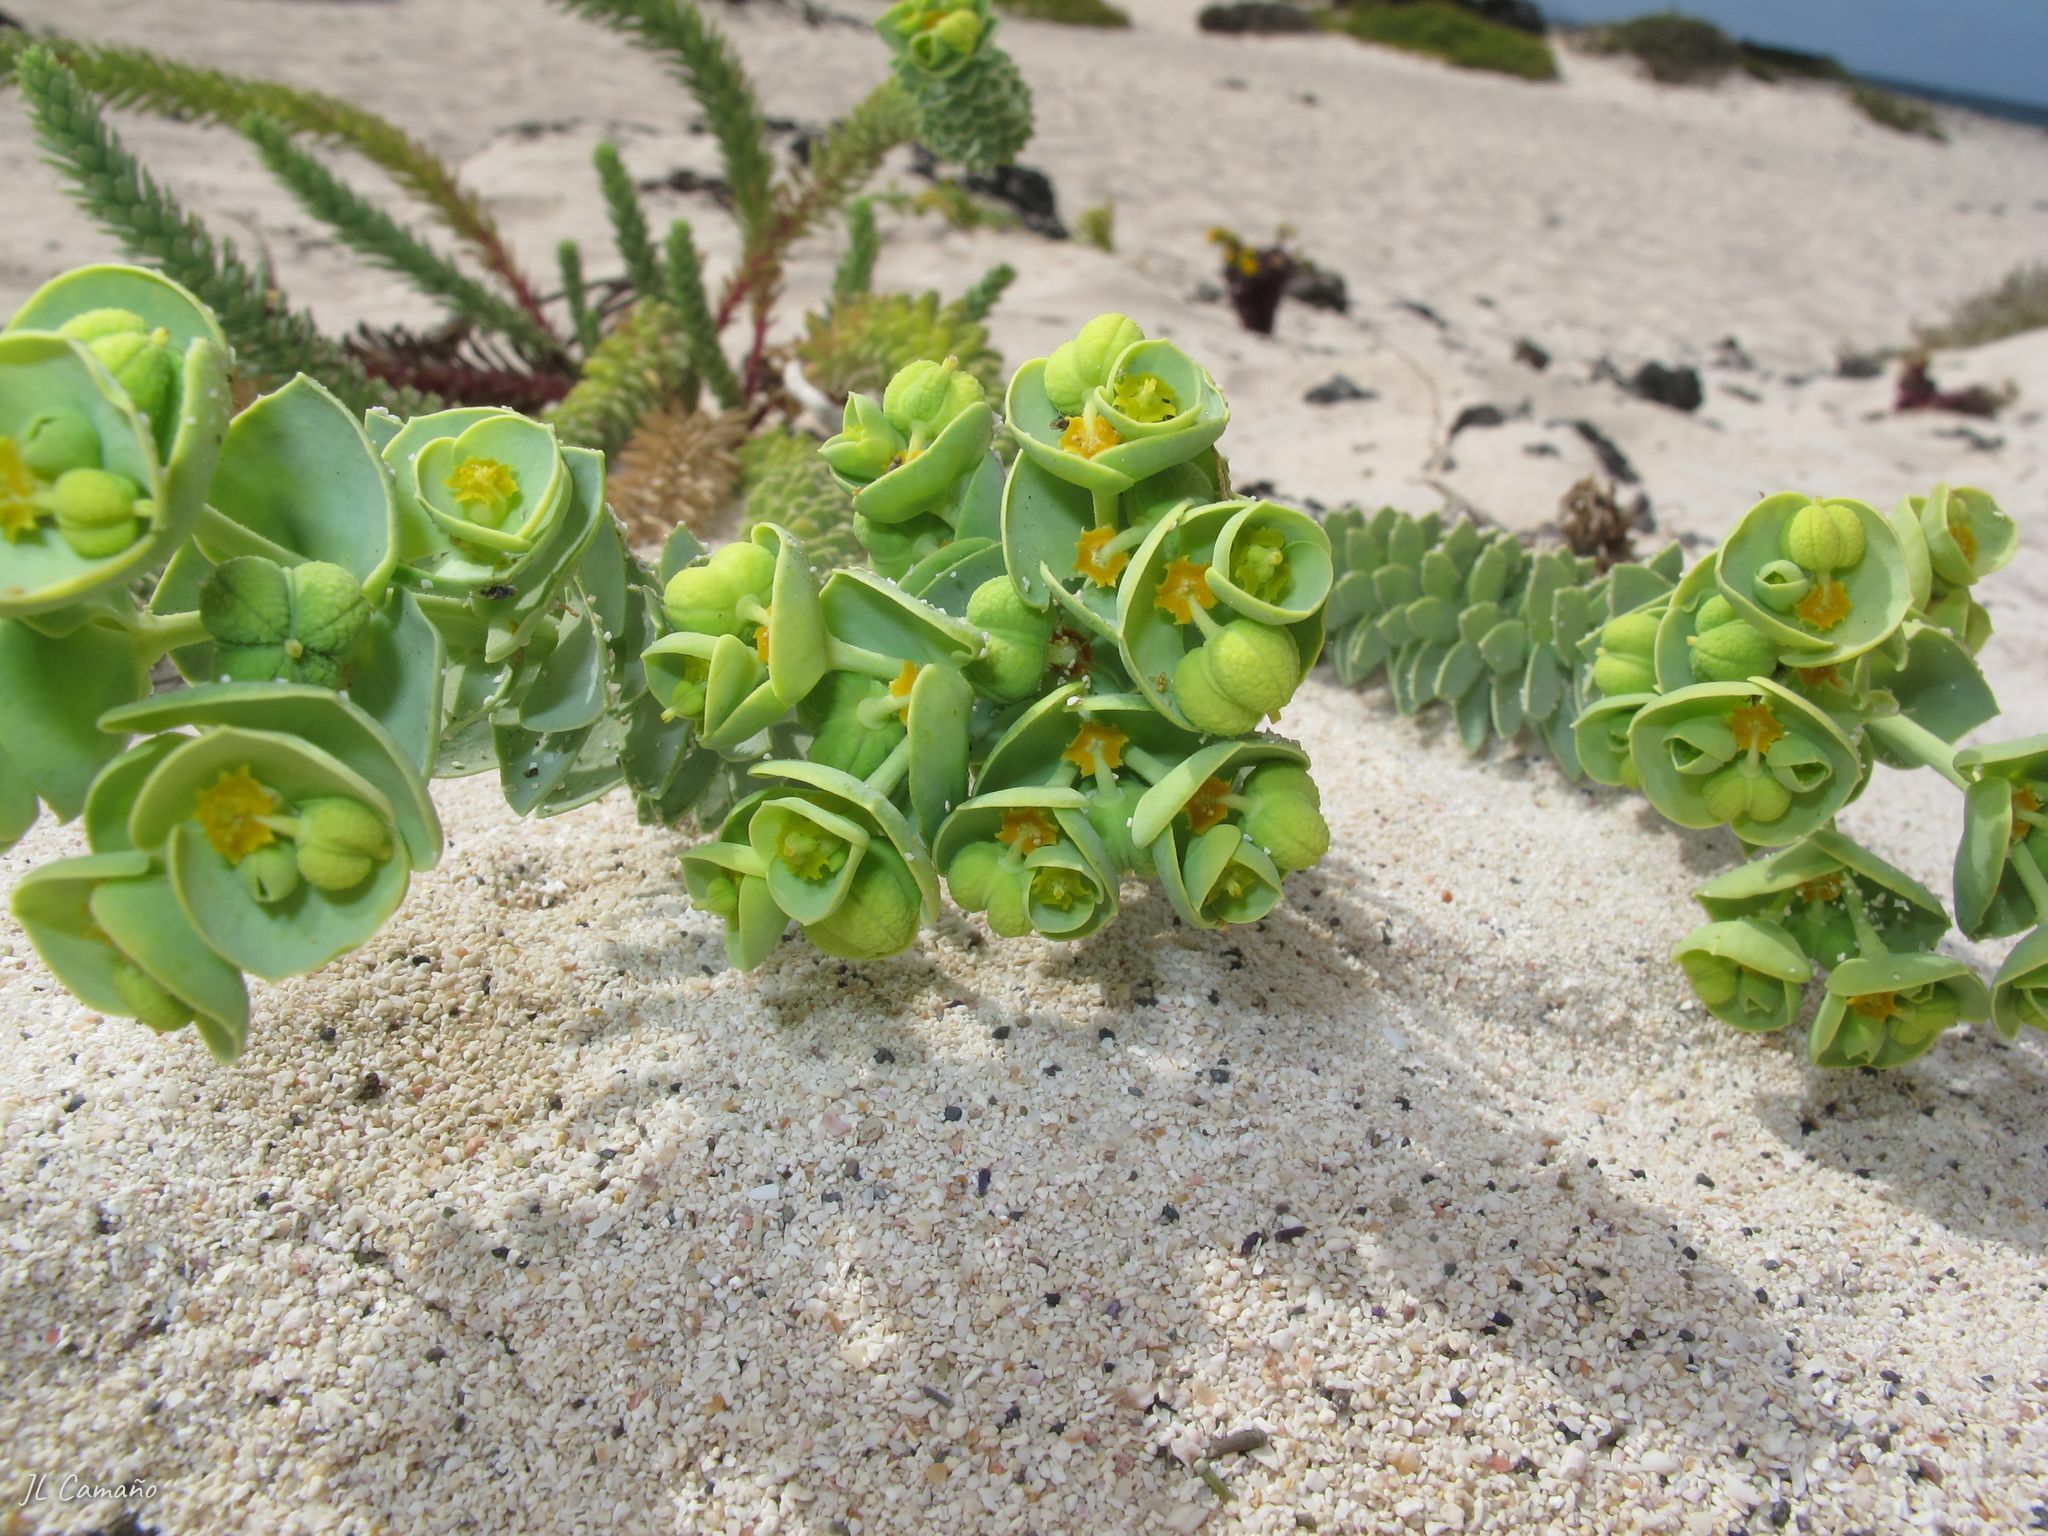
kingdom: Plantae
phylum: Tracheophyta
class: Magnoliopsida
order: Malpighiales
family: Euphorbiaceae
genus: Euphorbia
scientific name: Euphorbia paralias
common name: Sea spurge
